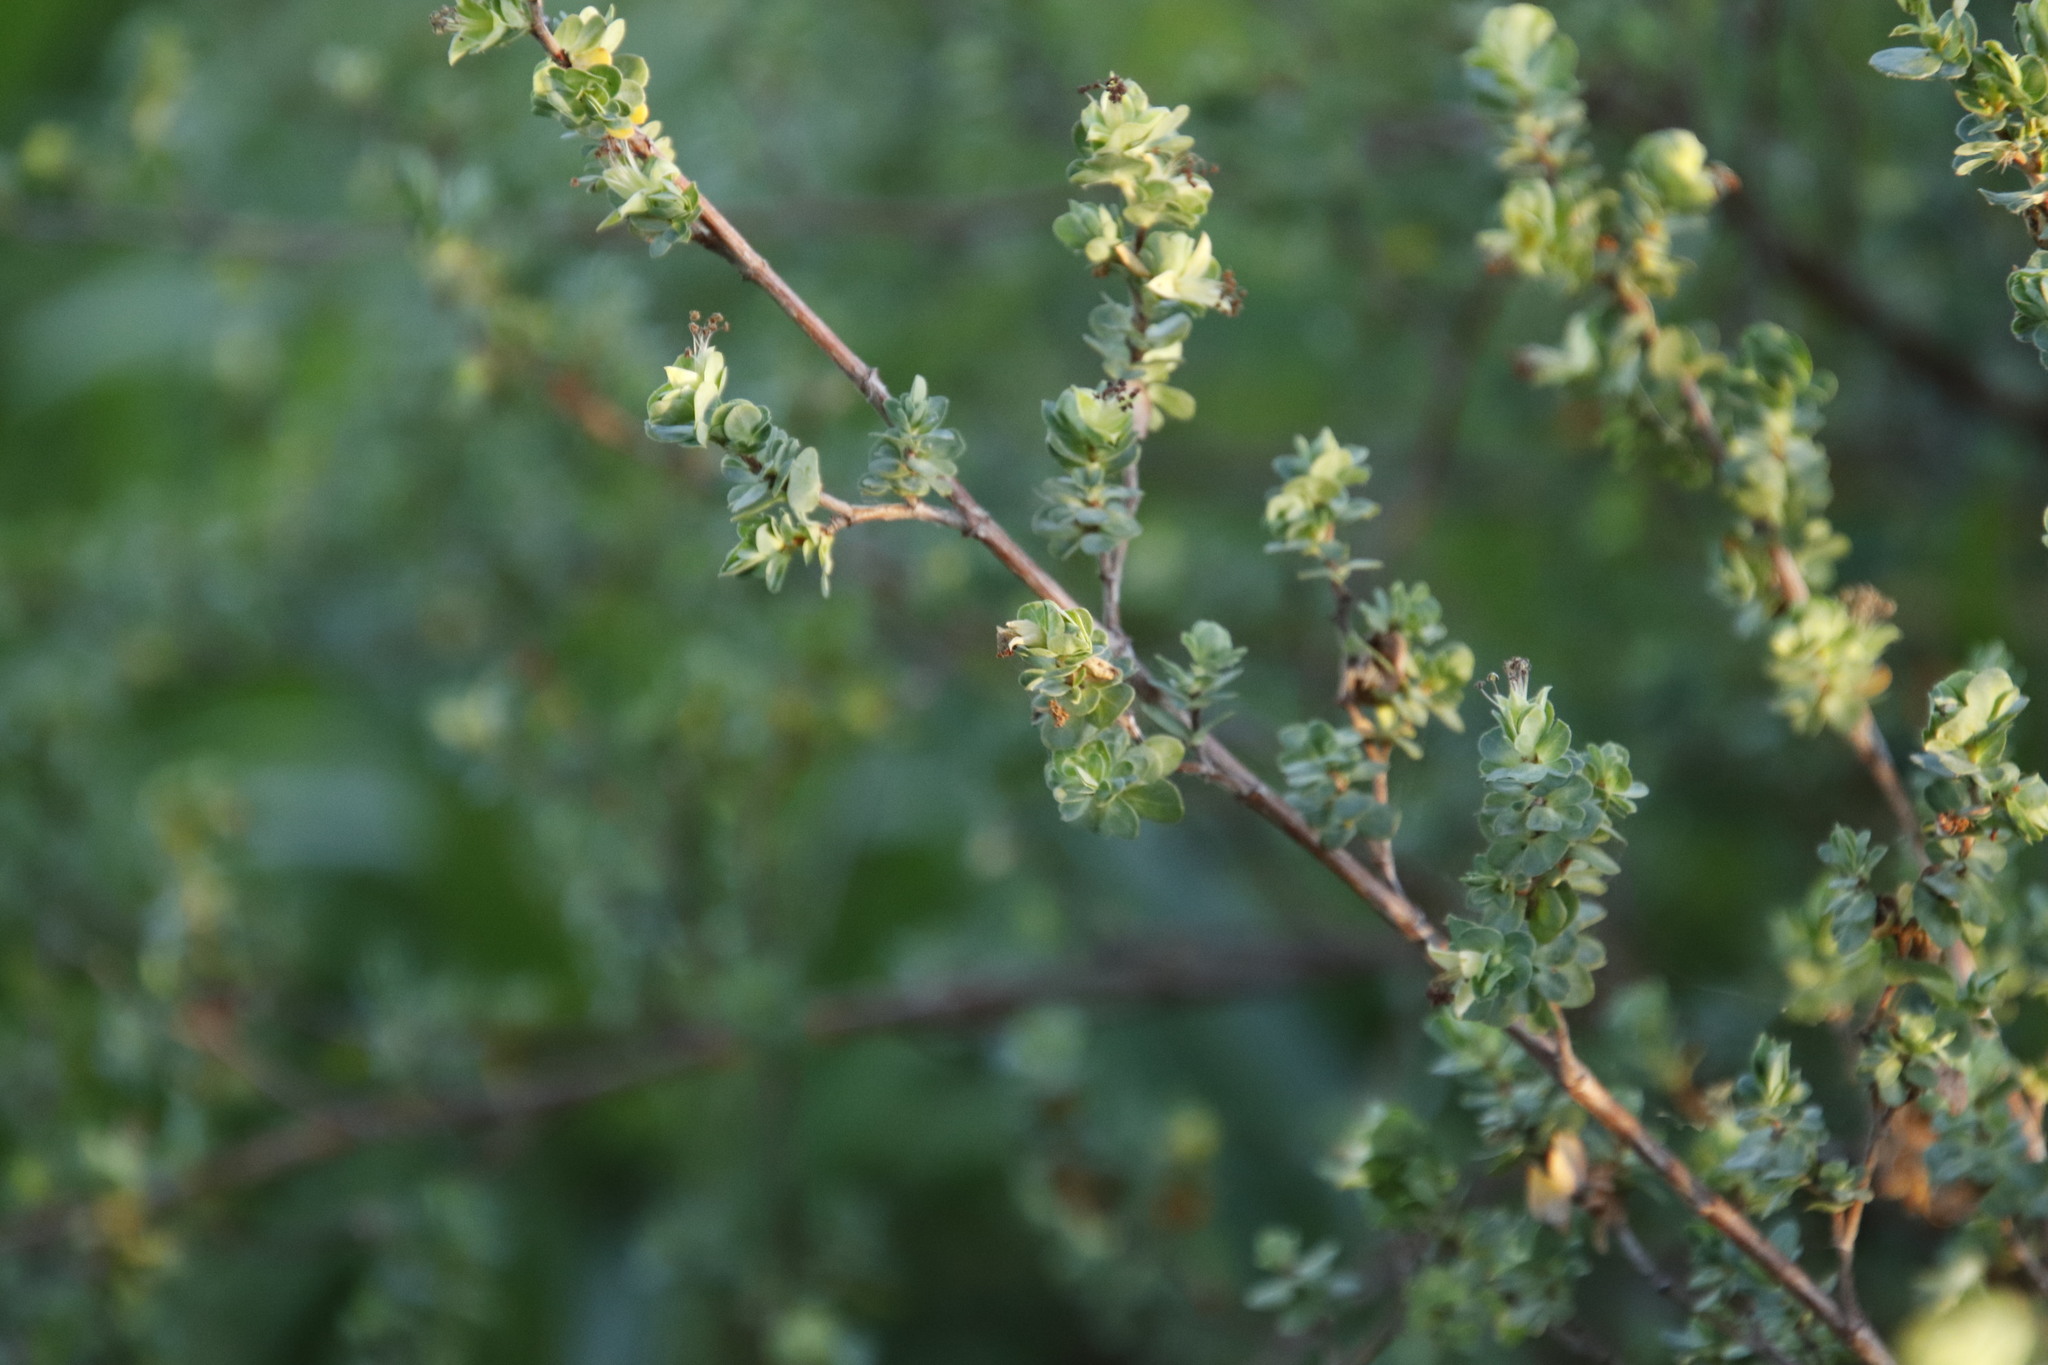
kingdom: Plantae
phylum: Tracheophyta
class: Magnoliopsida
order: Rosales
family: Rosaceae
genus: Cliffortia
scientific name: Cliffortia obcordata
